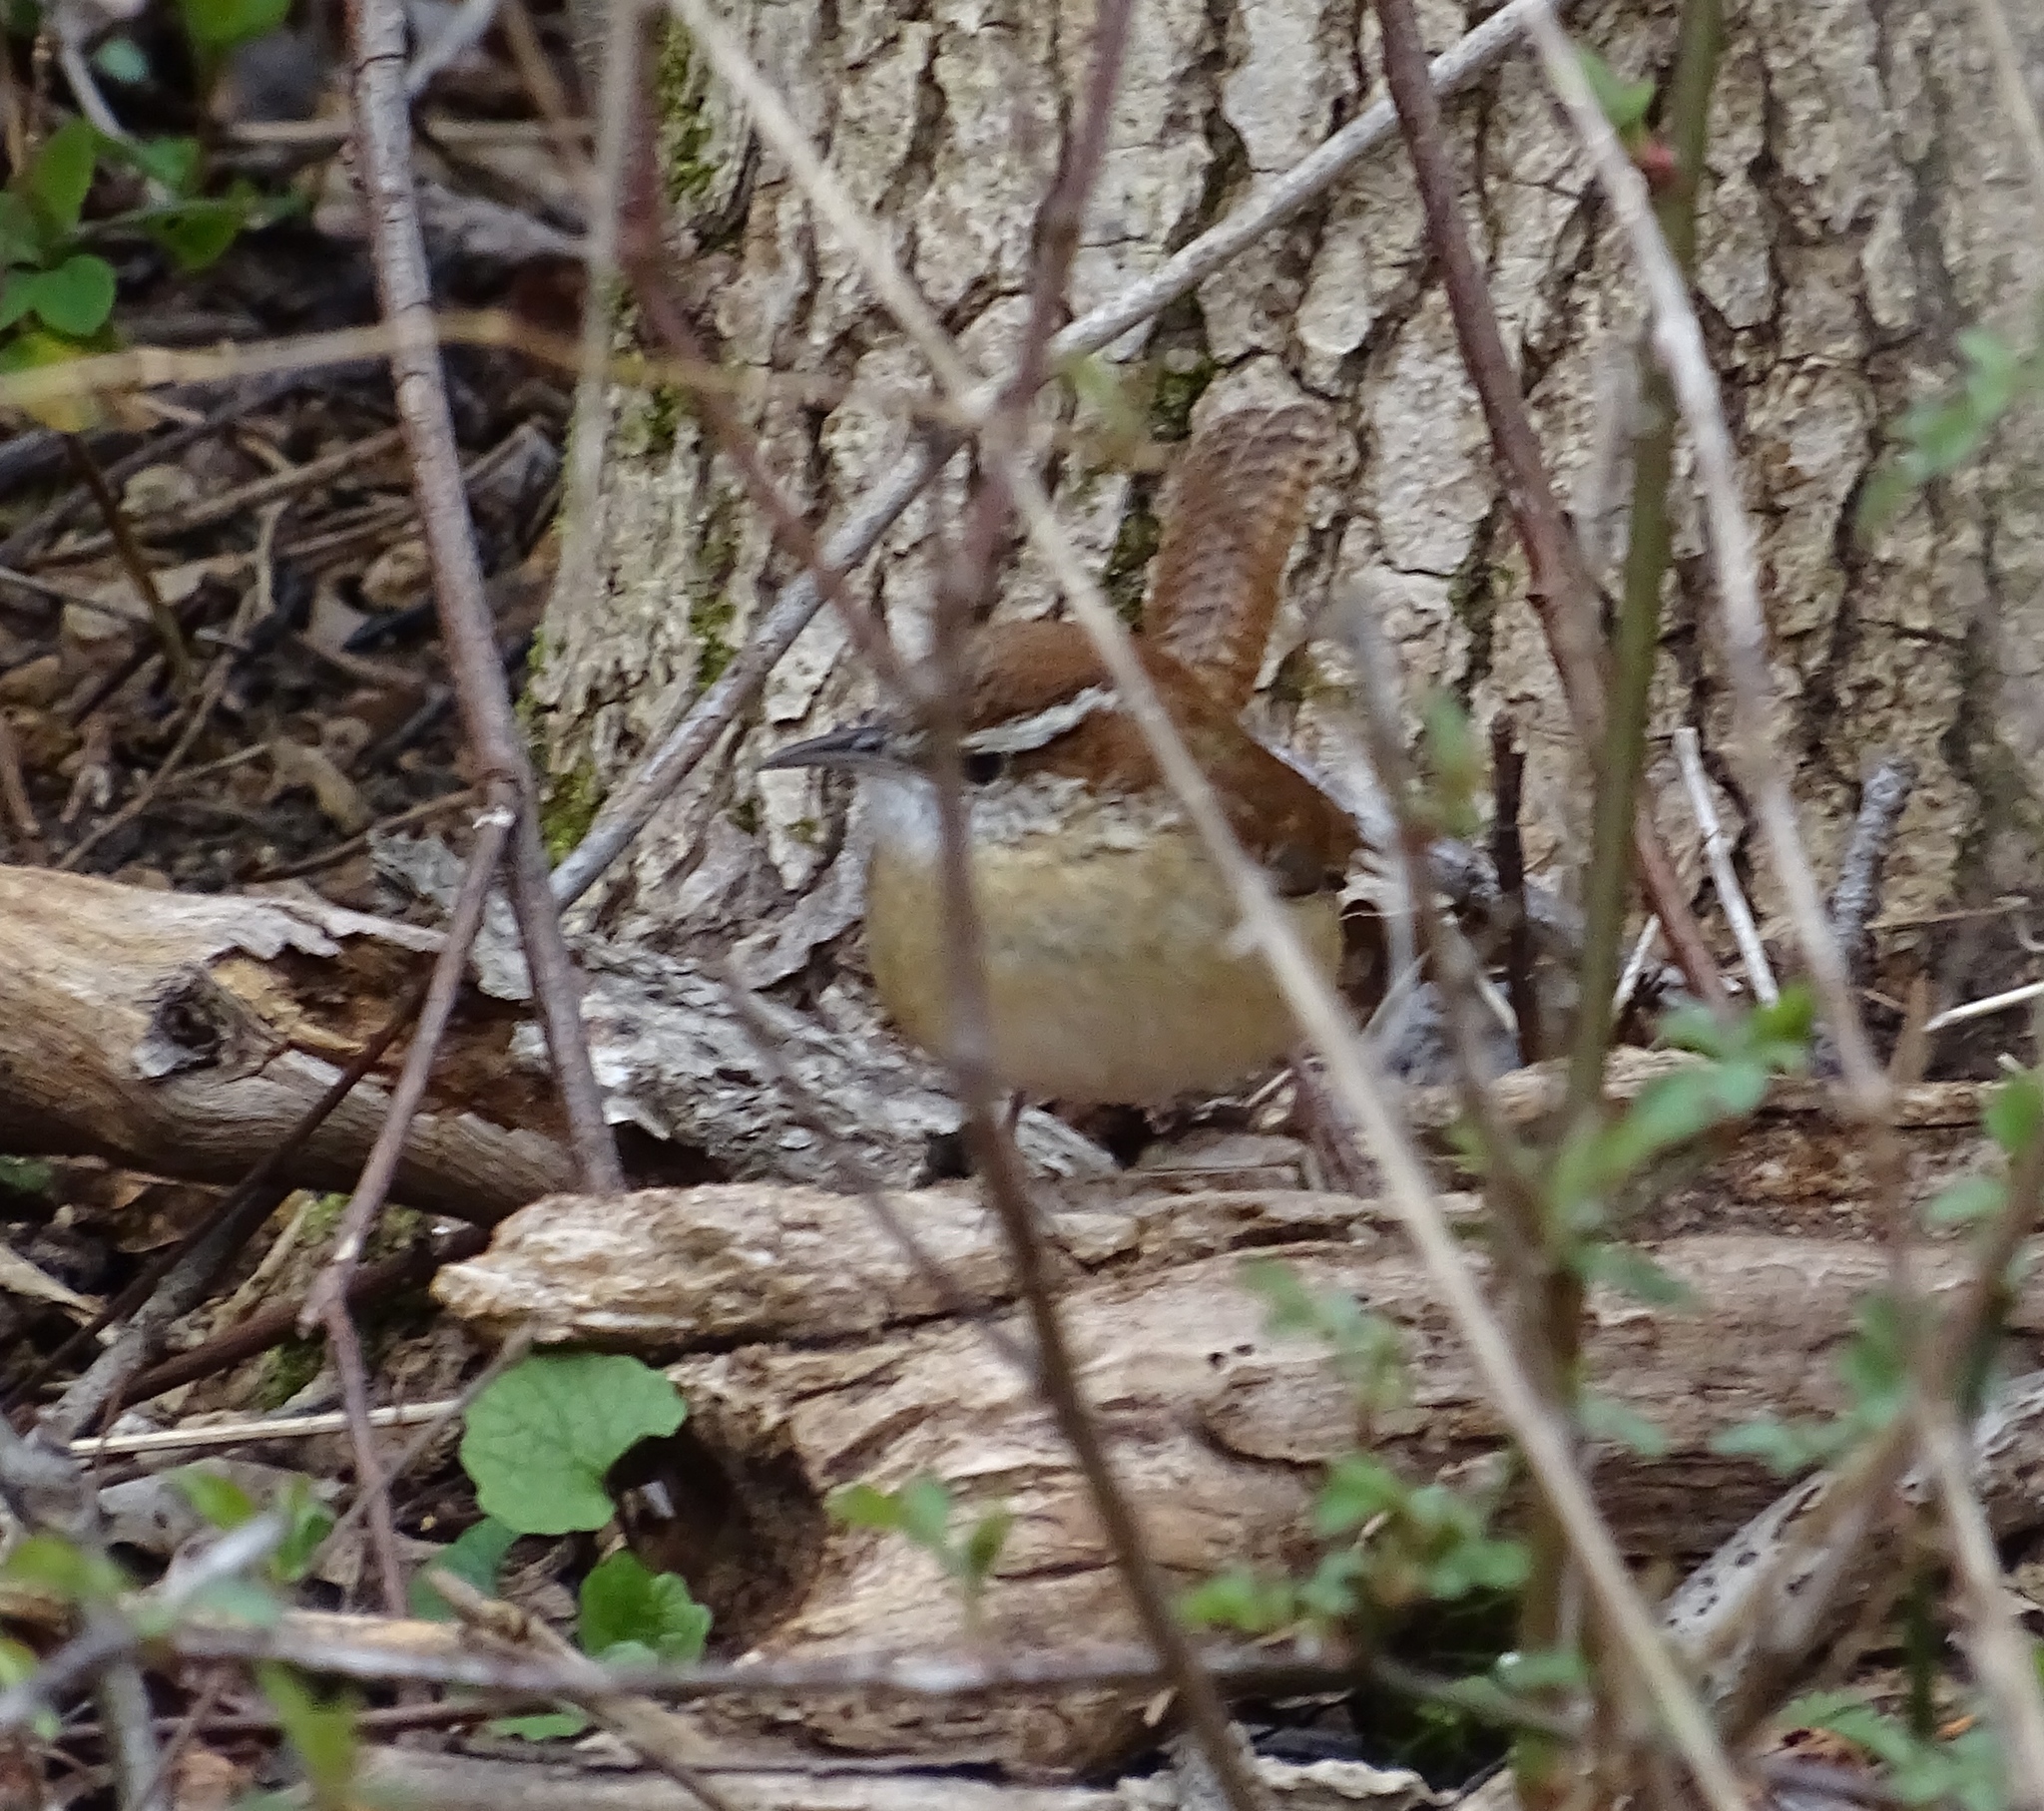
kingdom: Animalia
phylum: Chordata
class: Aves
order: Passeriformes
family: Troglodytidae
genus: Thryothorus
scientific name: Thryothorus ludovicianus
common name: Carolina wren
